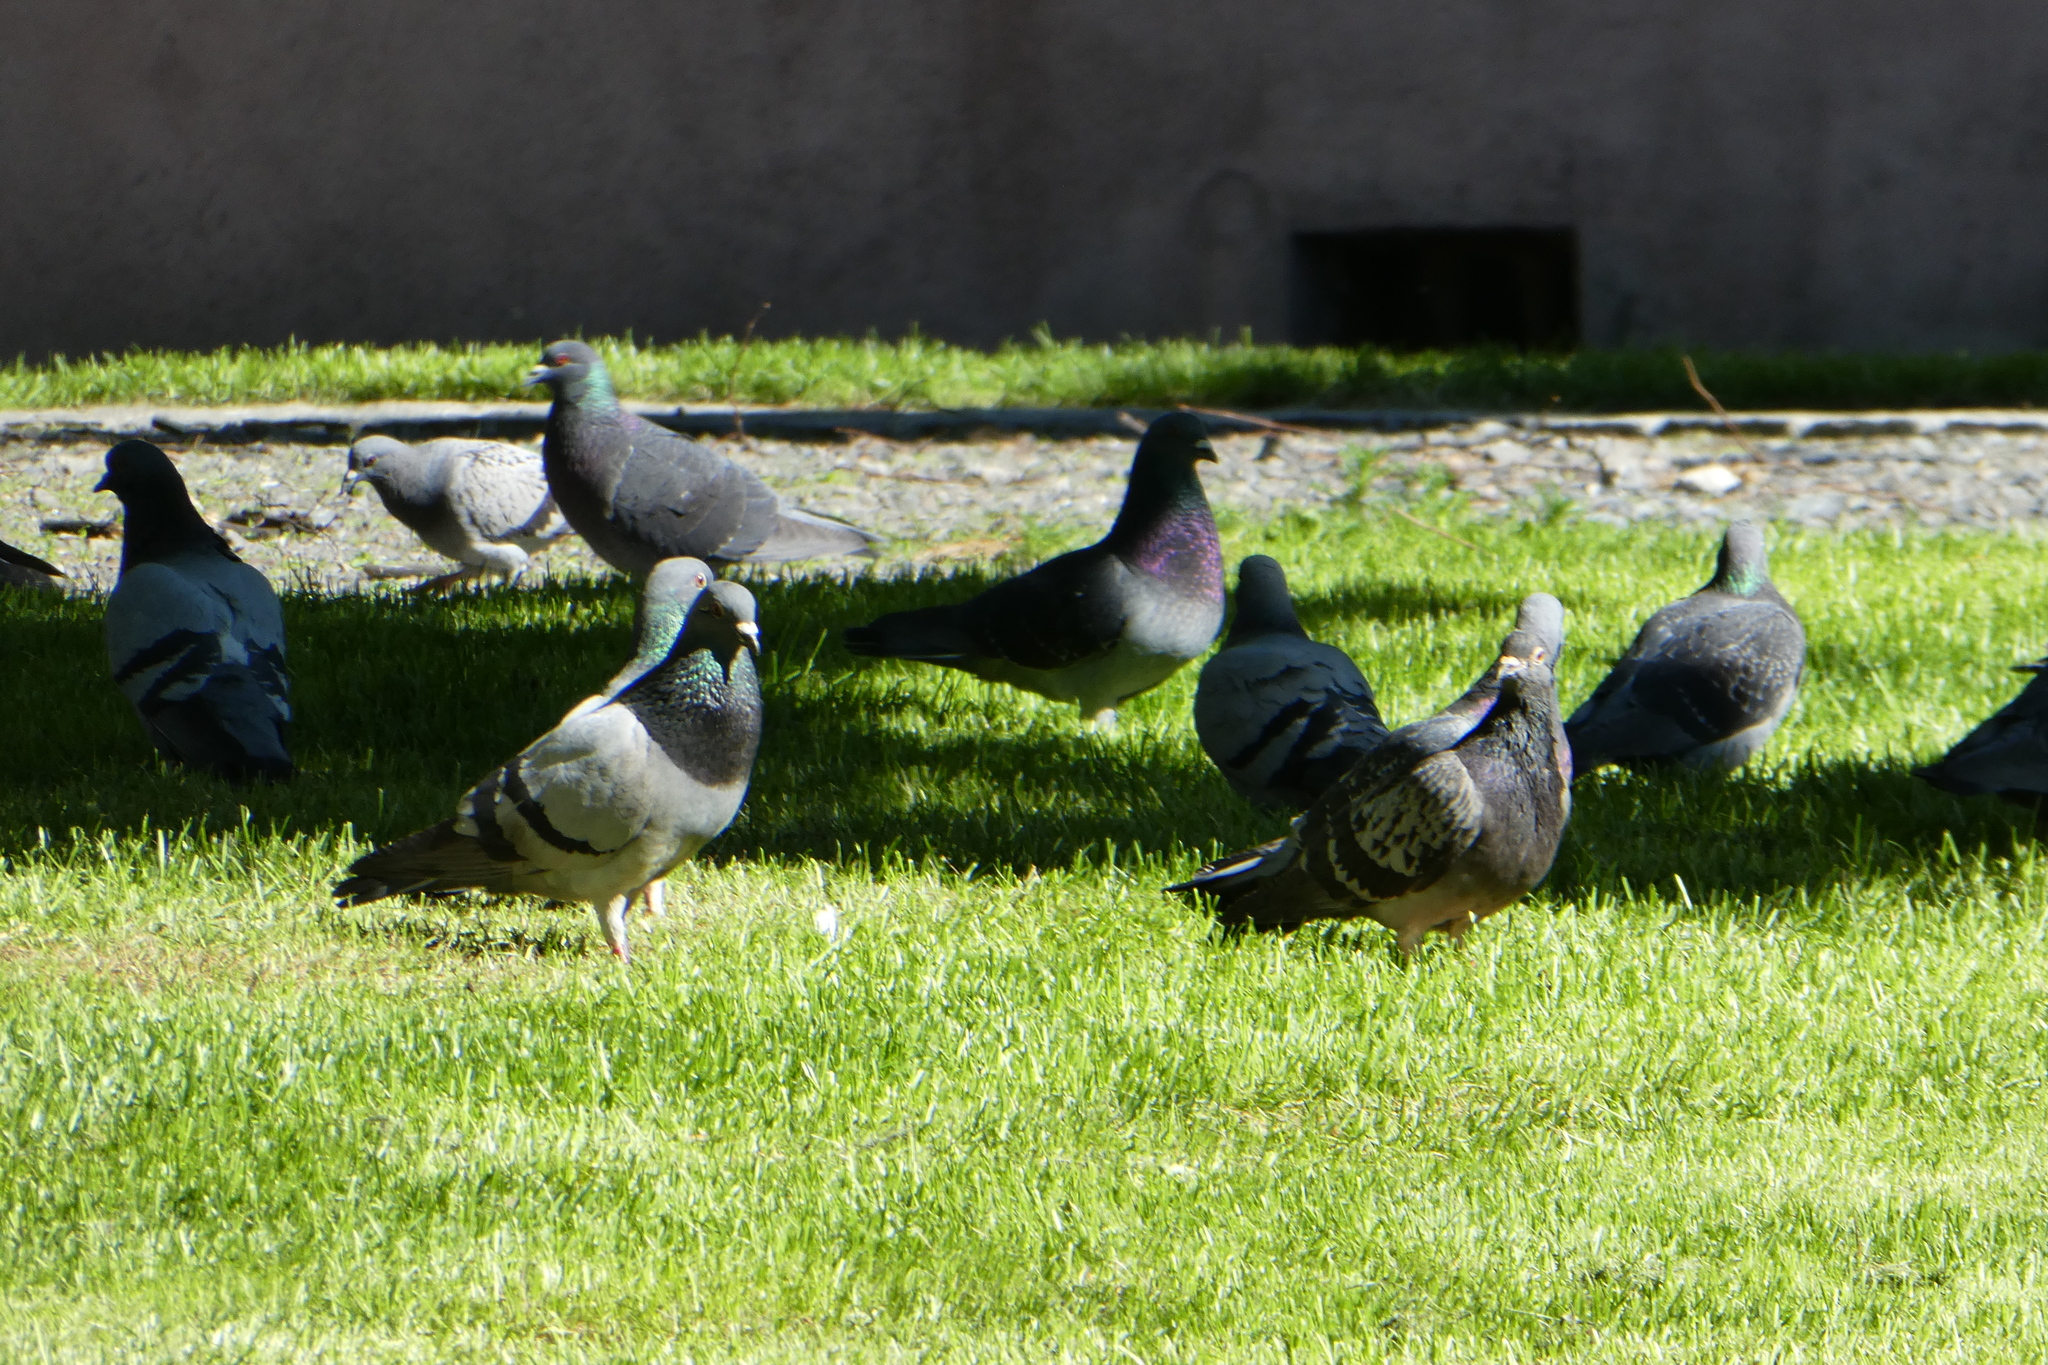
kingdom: Animalia
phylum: Chordata
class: Aves
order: Columbiformes
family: Columbidae
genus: Columba
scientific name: Columba livia
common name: Rock pigeon
